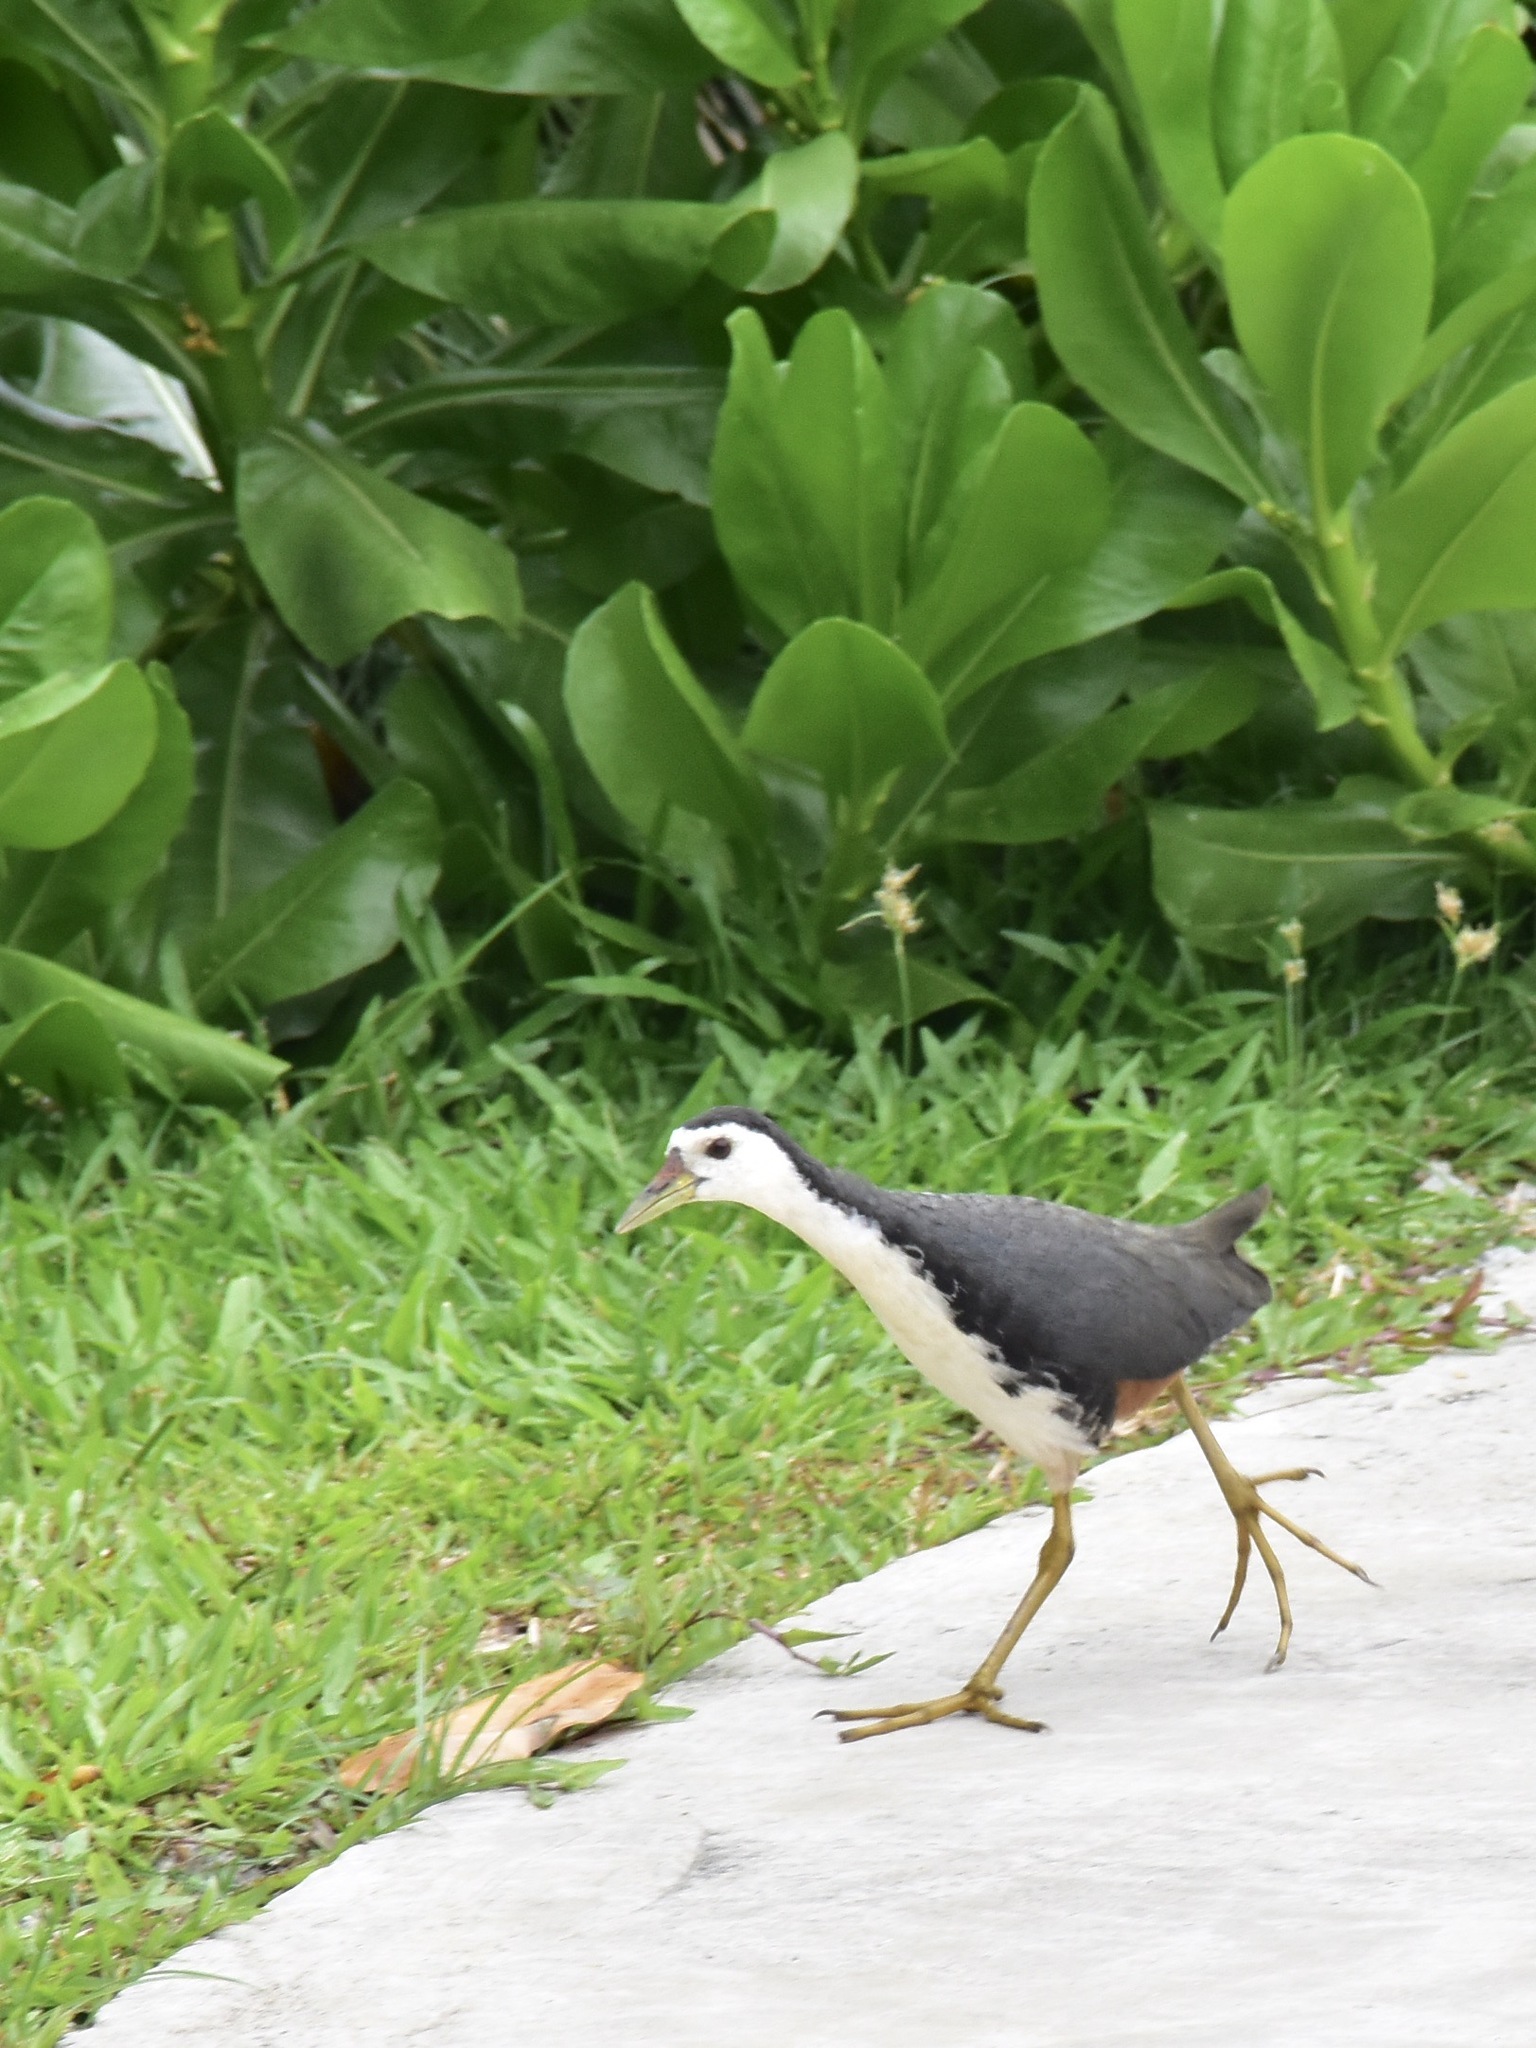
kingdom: Animalia
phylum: Chordata
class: Aves
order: Gruiformes
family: Rallidae
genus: Amaurornis
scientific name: Amaurornis phoenicurus
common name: White-breasted waterhen
